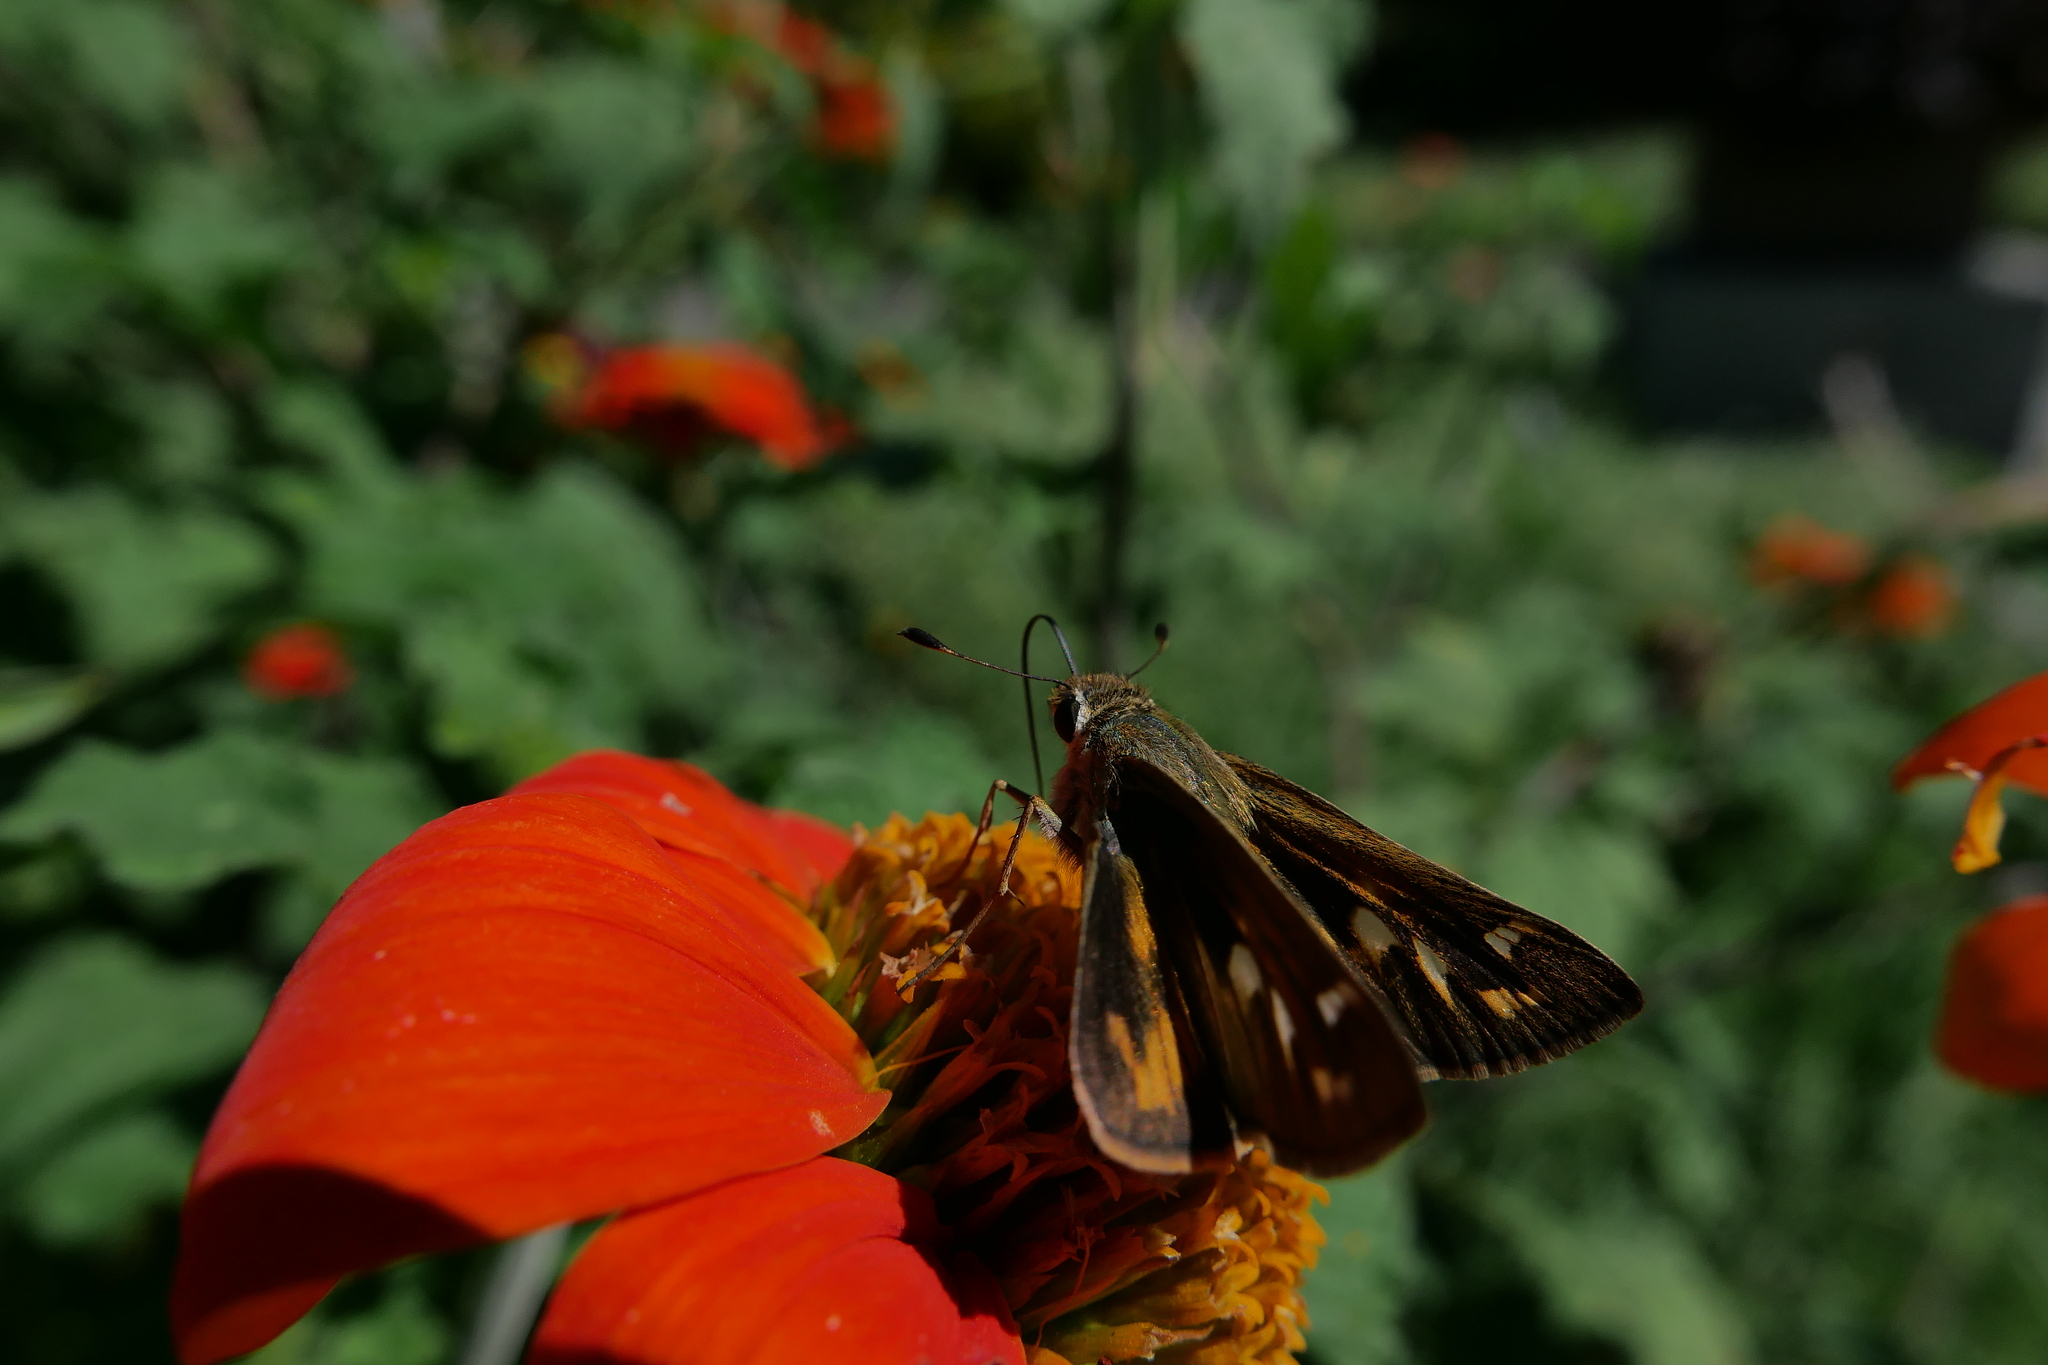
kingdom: Animalia
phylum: Arthropoda
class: Insecta
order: Lepidoptera
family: Hesperiidae
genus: Atalopedes
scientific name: Atalopedes
